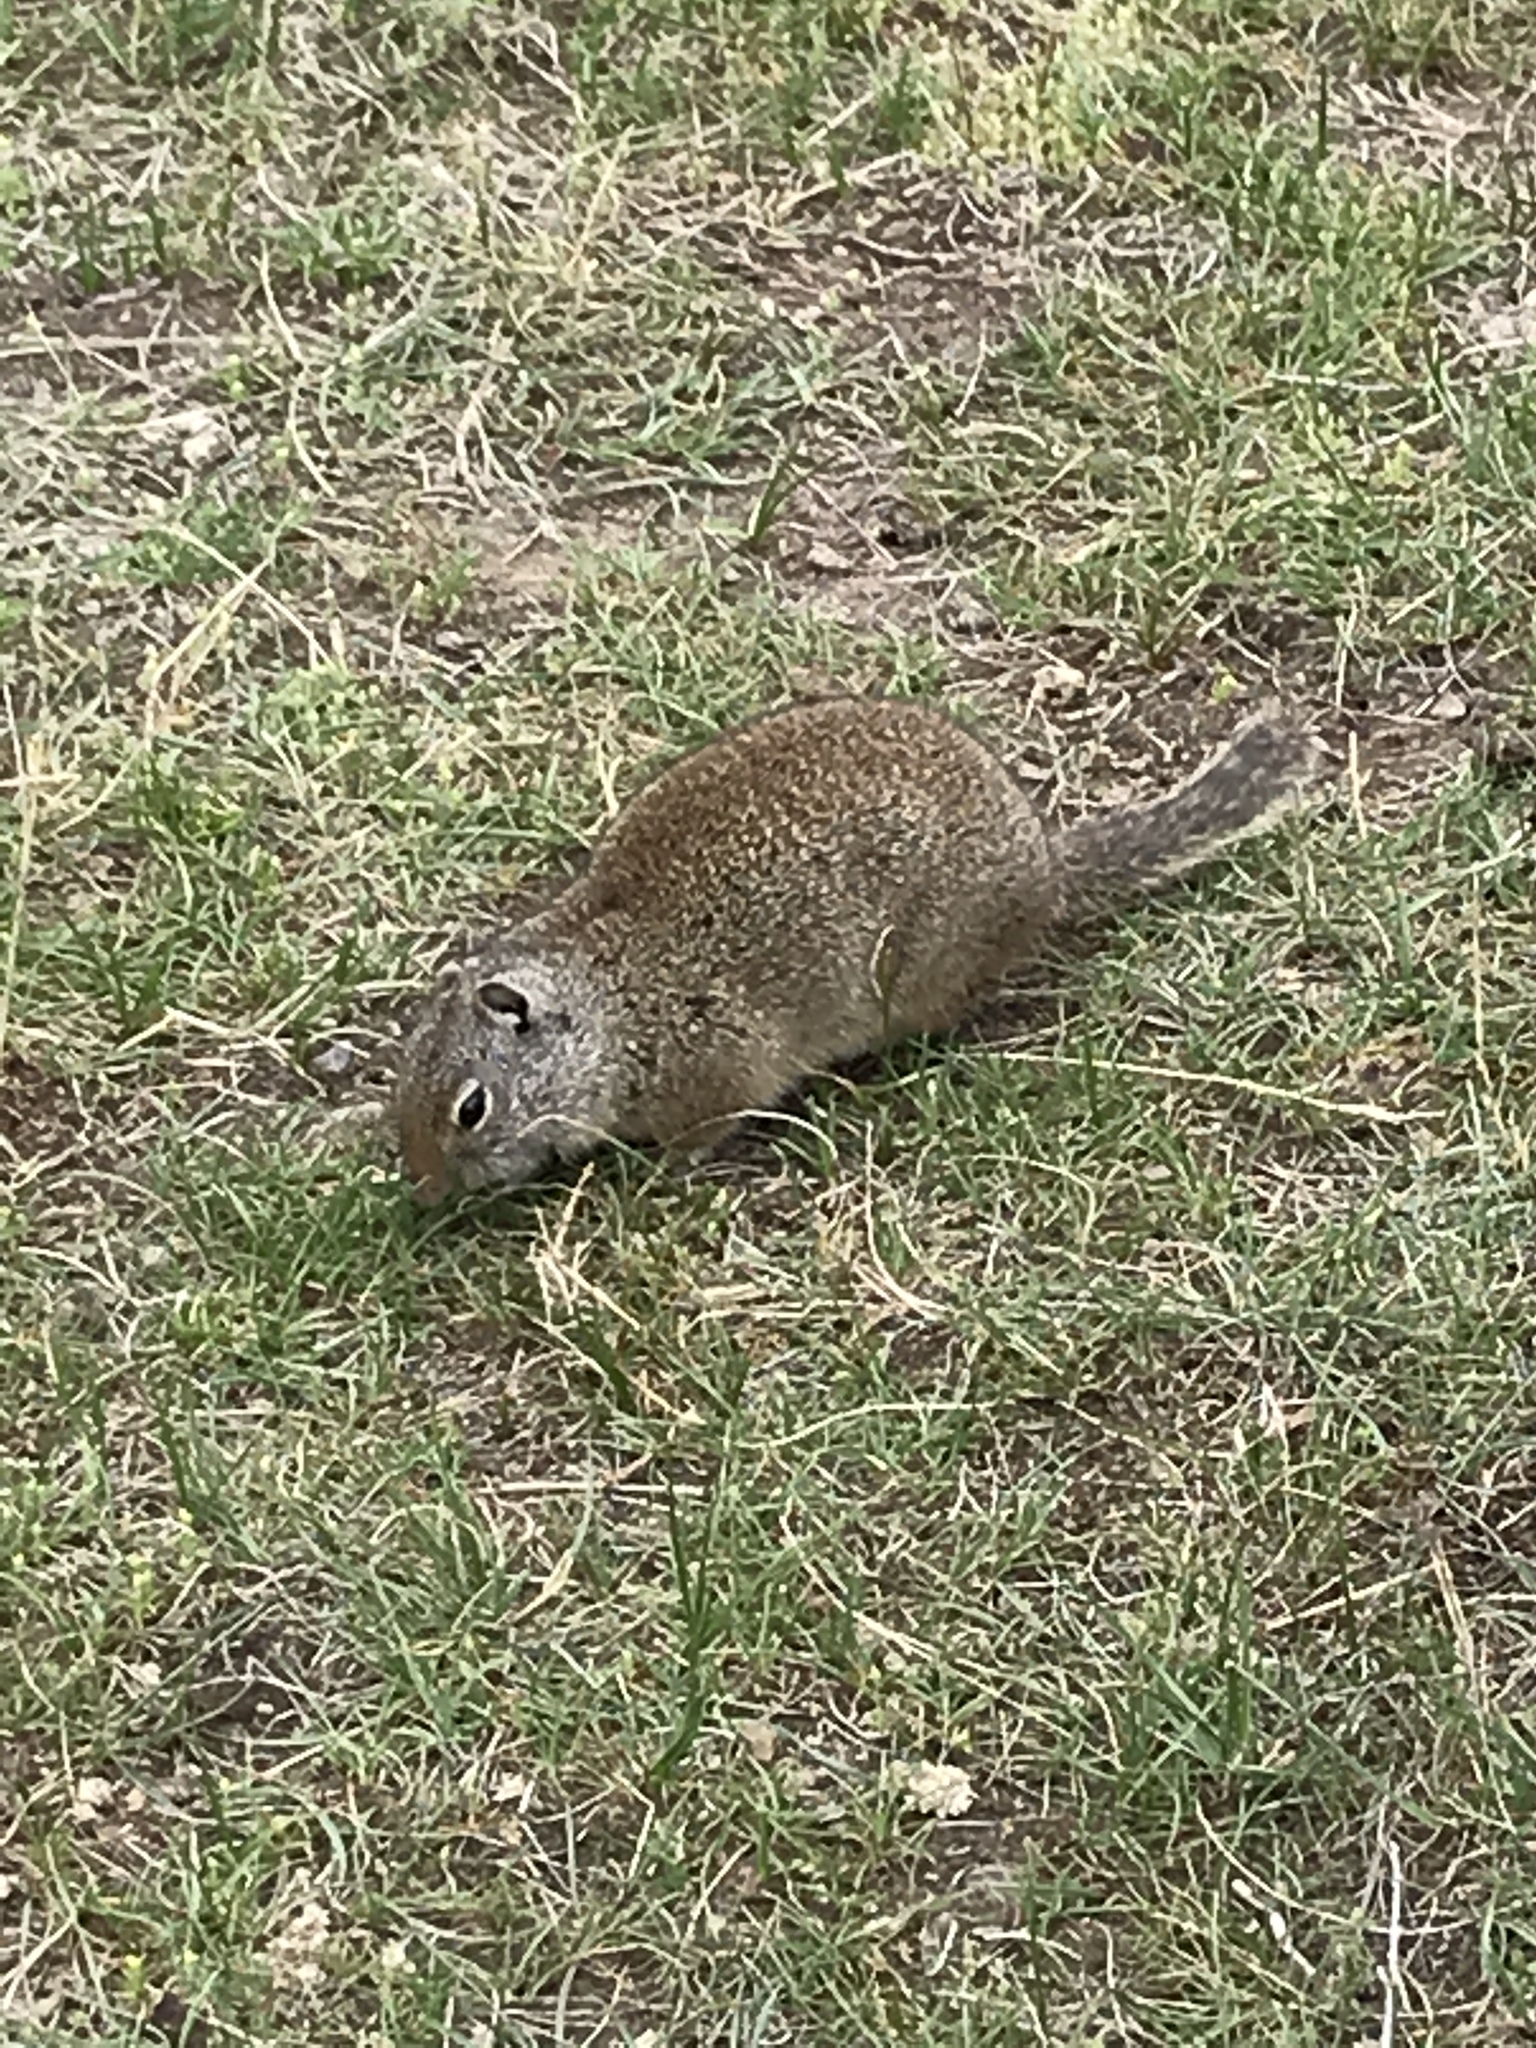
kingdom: Animalia
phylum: Chordata
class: Mammalia
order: Rodentia
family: Sciuridae
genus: Urocitellus
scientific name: Urocitellus armatus
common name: Uinta ground squirrel
